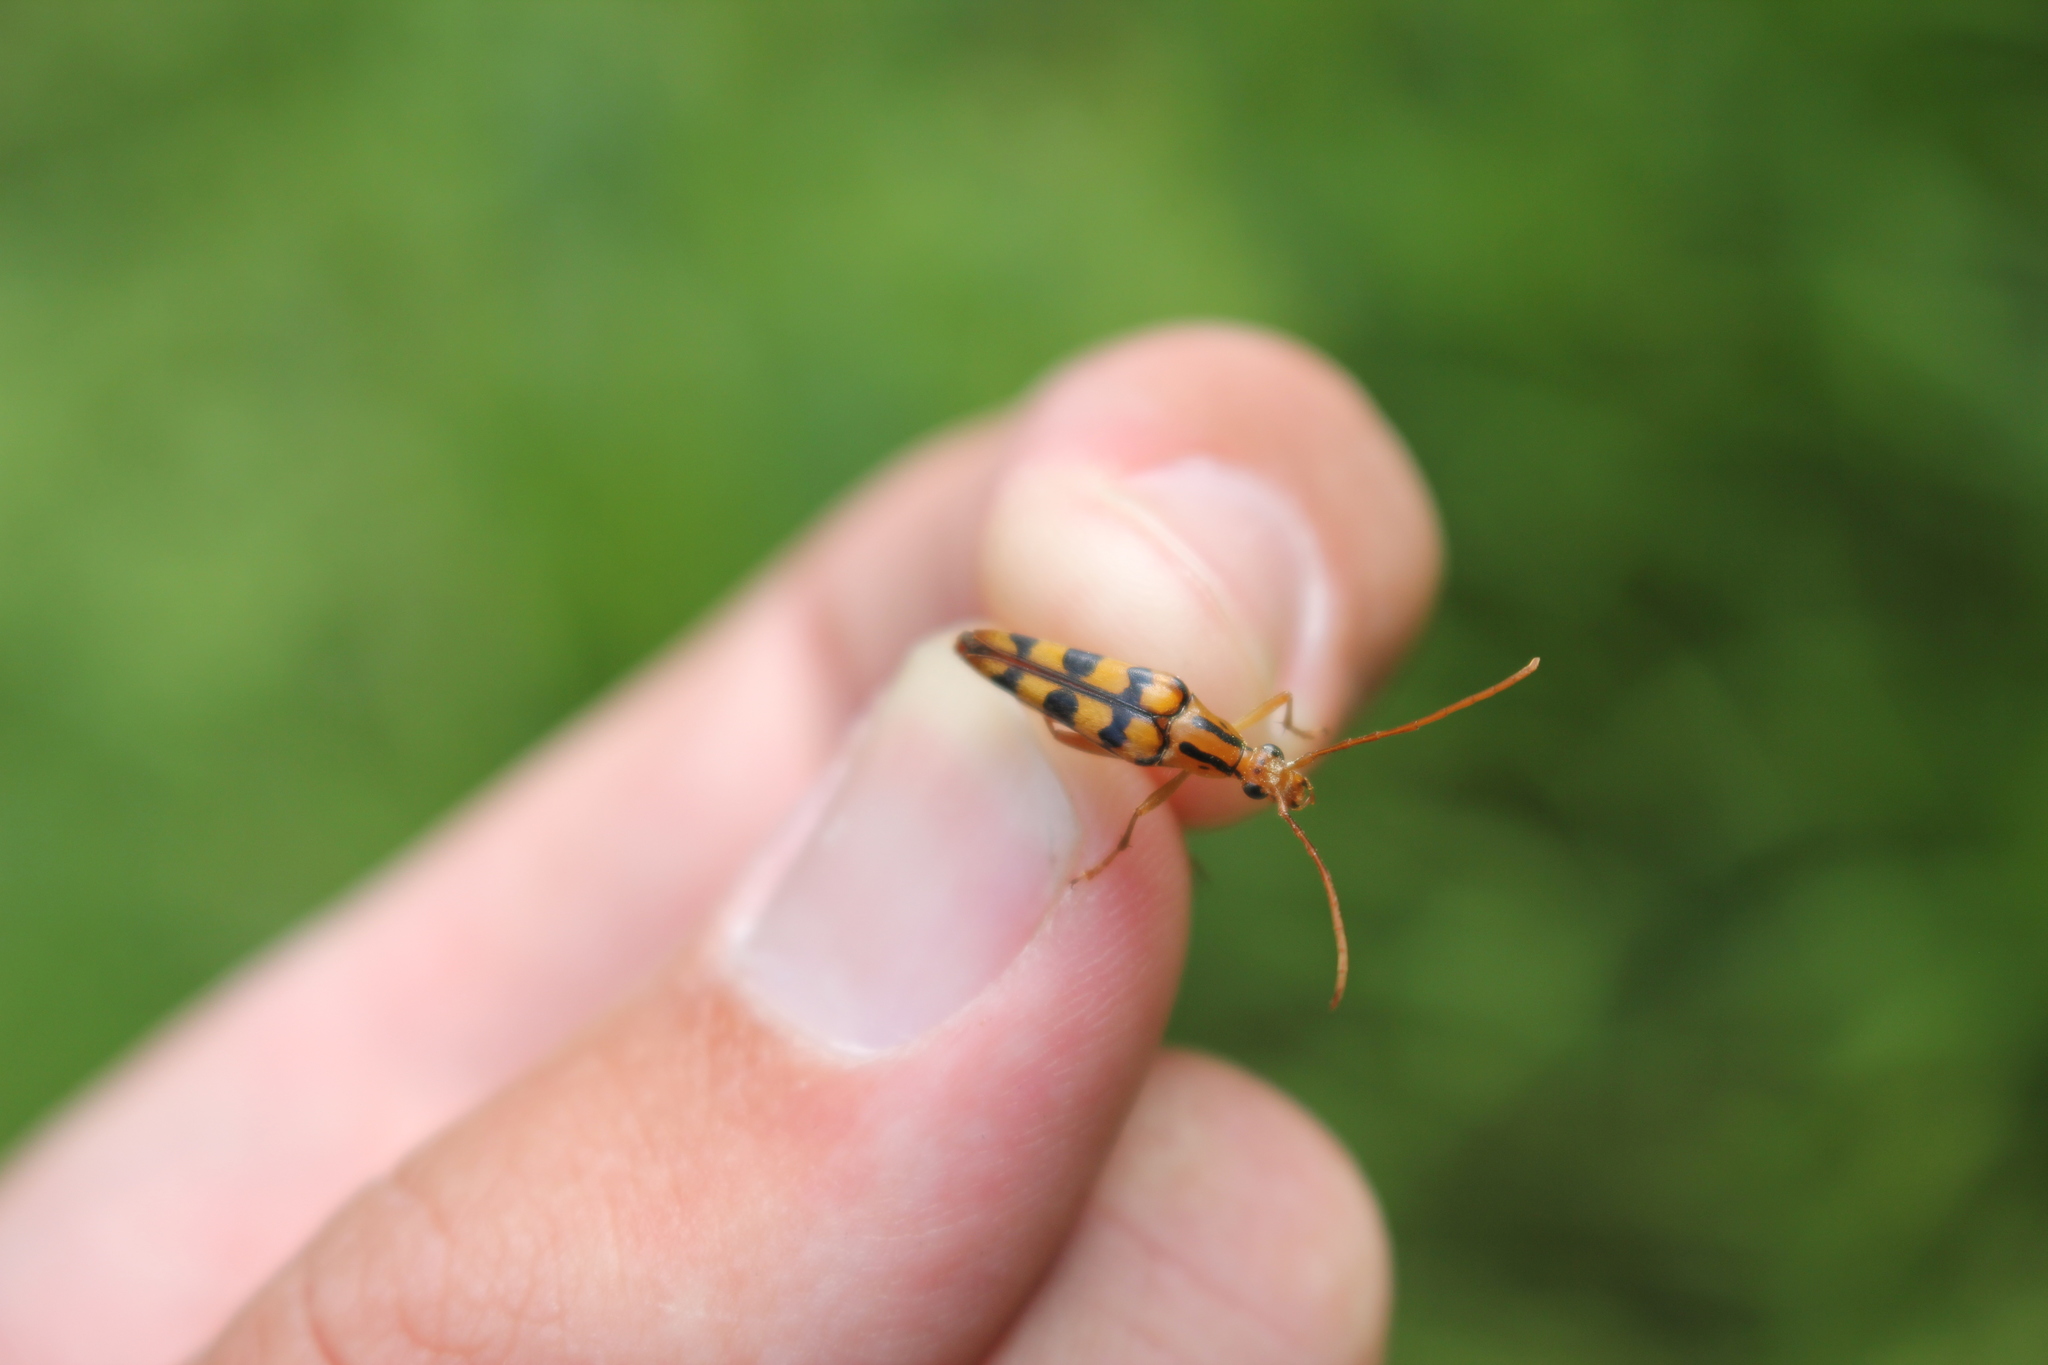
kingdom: Animalia
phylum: Arthropoda
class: Insecta
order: Coleoptera
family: Cerambycidae
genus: Strangalia
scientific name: Strangalia luteicornis
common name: Yellow-horned flower longhorn beetle
